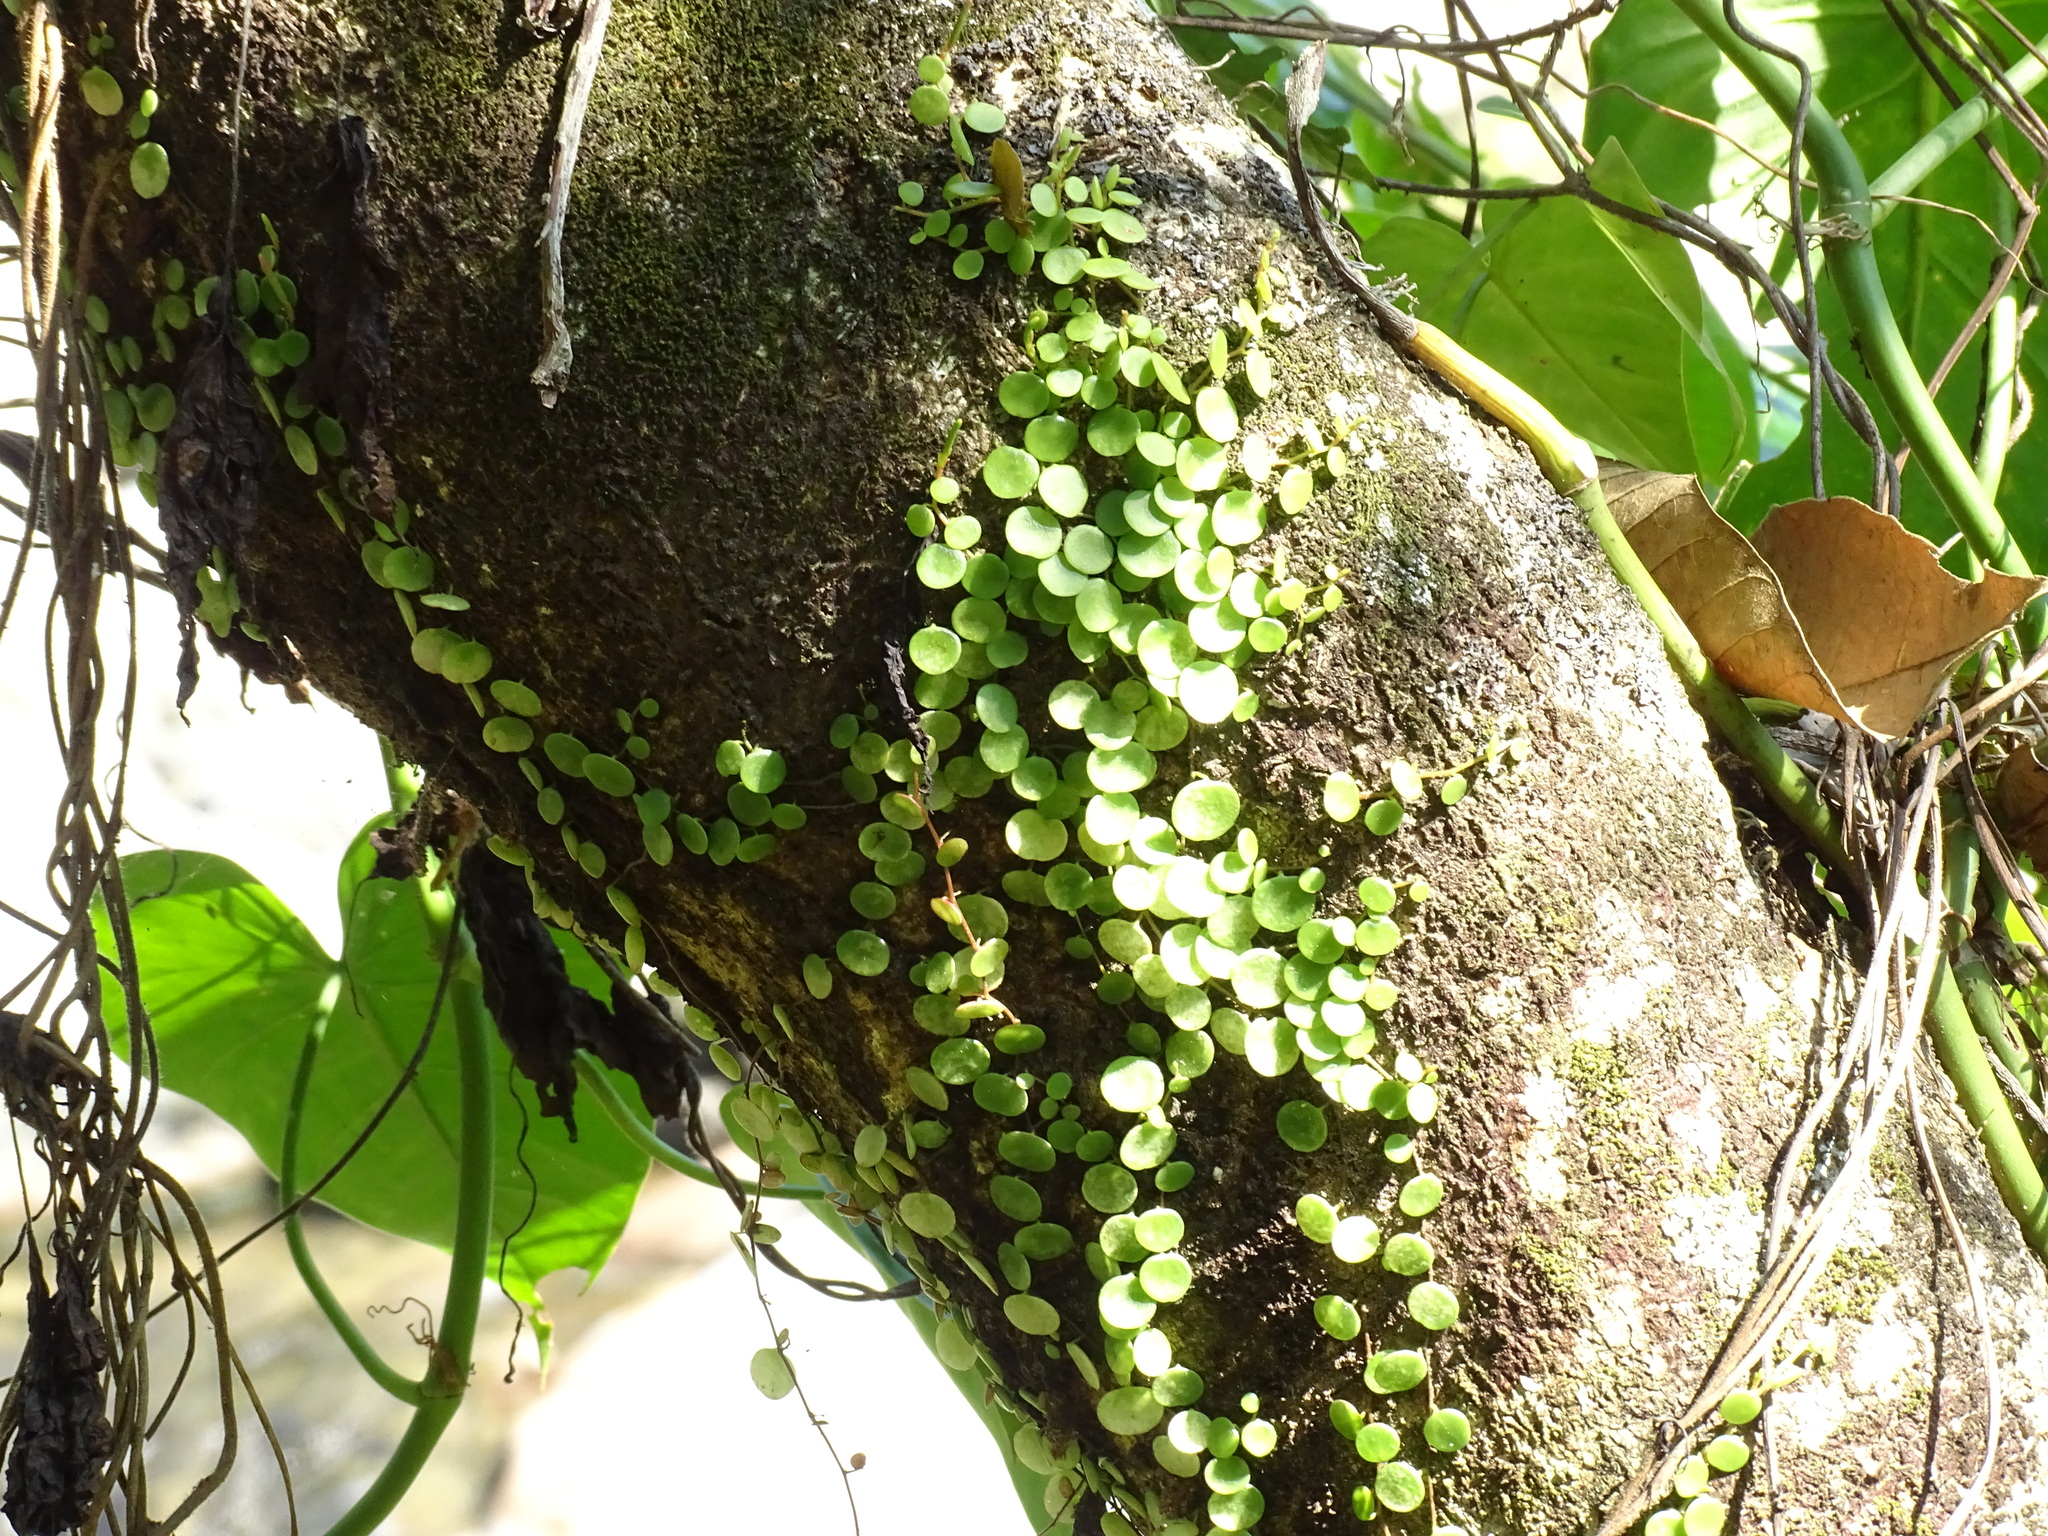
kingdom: Plantae
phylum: Tracheophyta
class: Magnoliopsida
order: Piperales
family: Piperaceae
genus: Peperomia
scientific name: Peperomia cyclophylla
